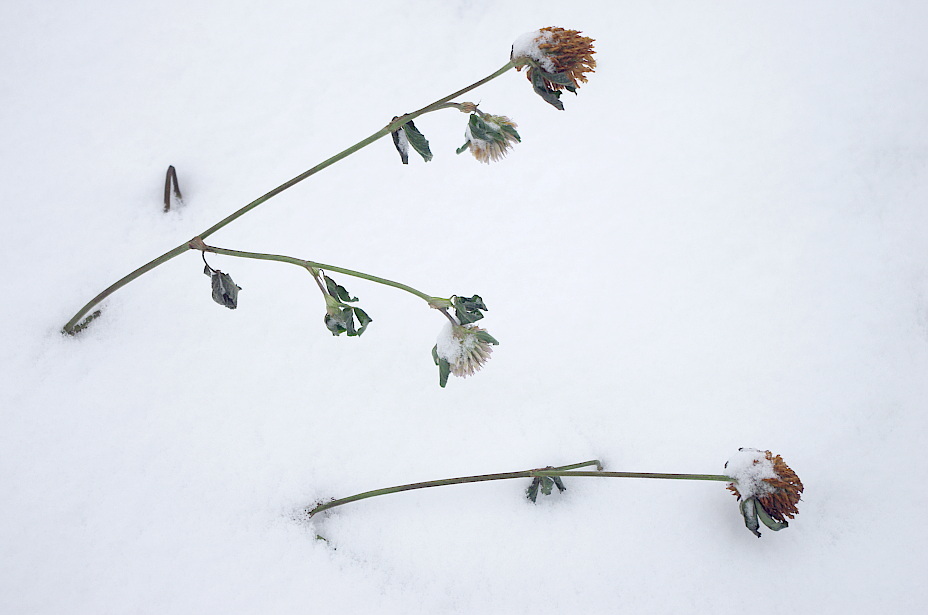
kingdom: Plantae
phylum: Tracheophyta
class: Magnoliopsida
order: Fabales
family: Fabaceae
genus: Trifolium
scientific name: Trifolium pratense
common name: Red clover
